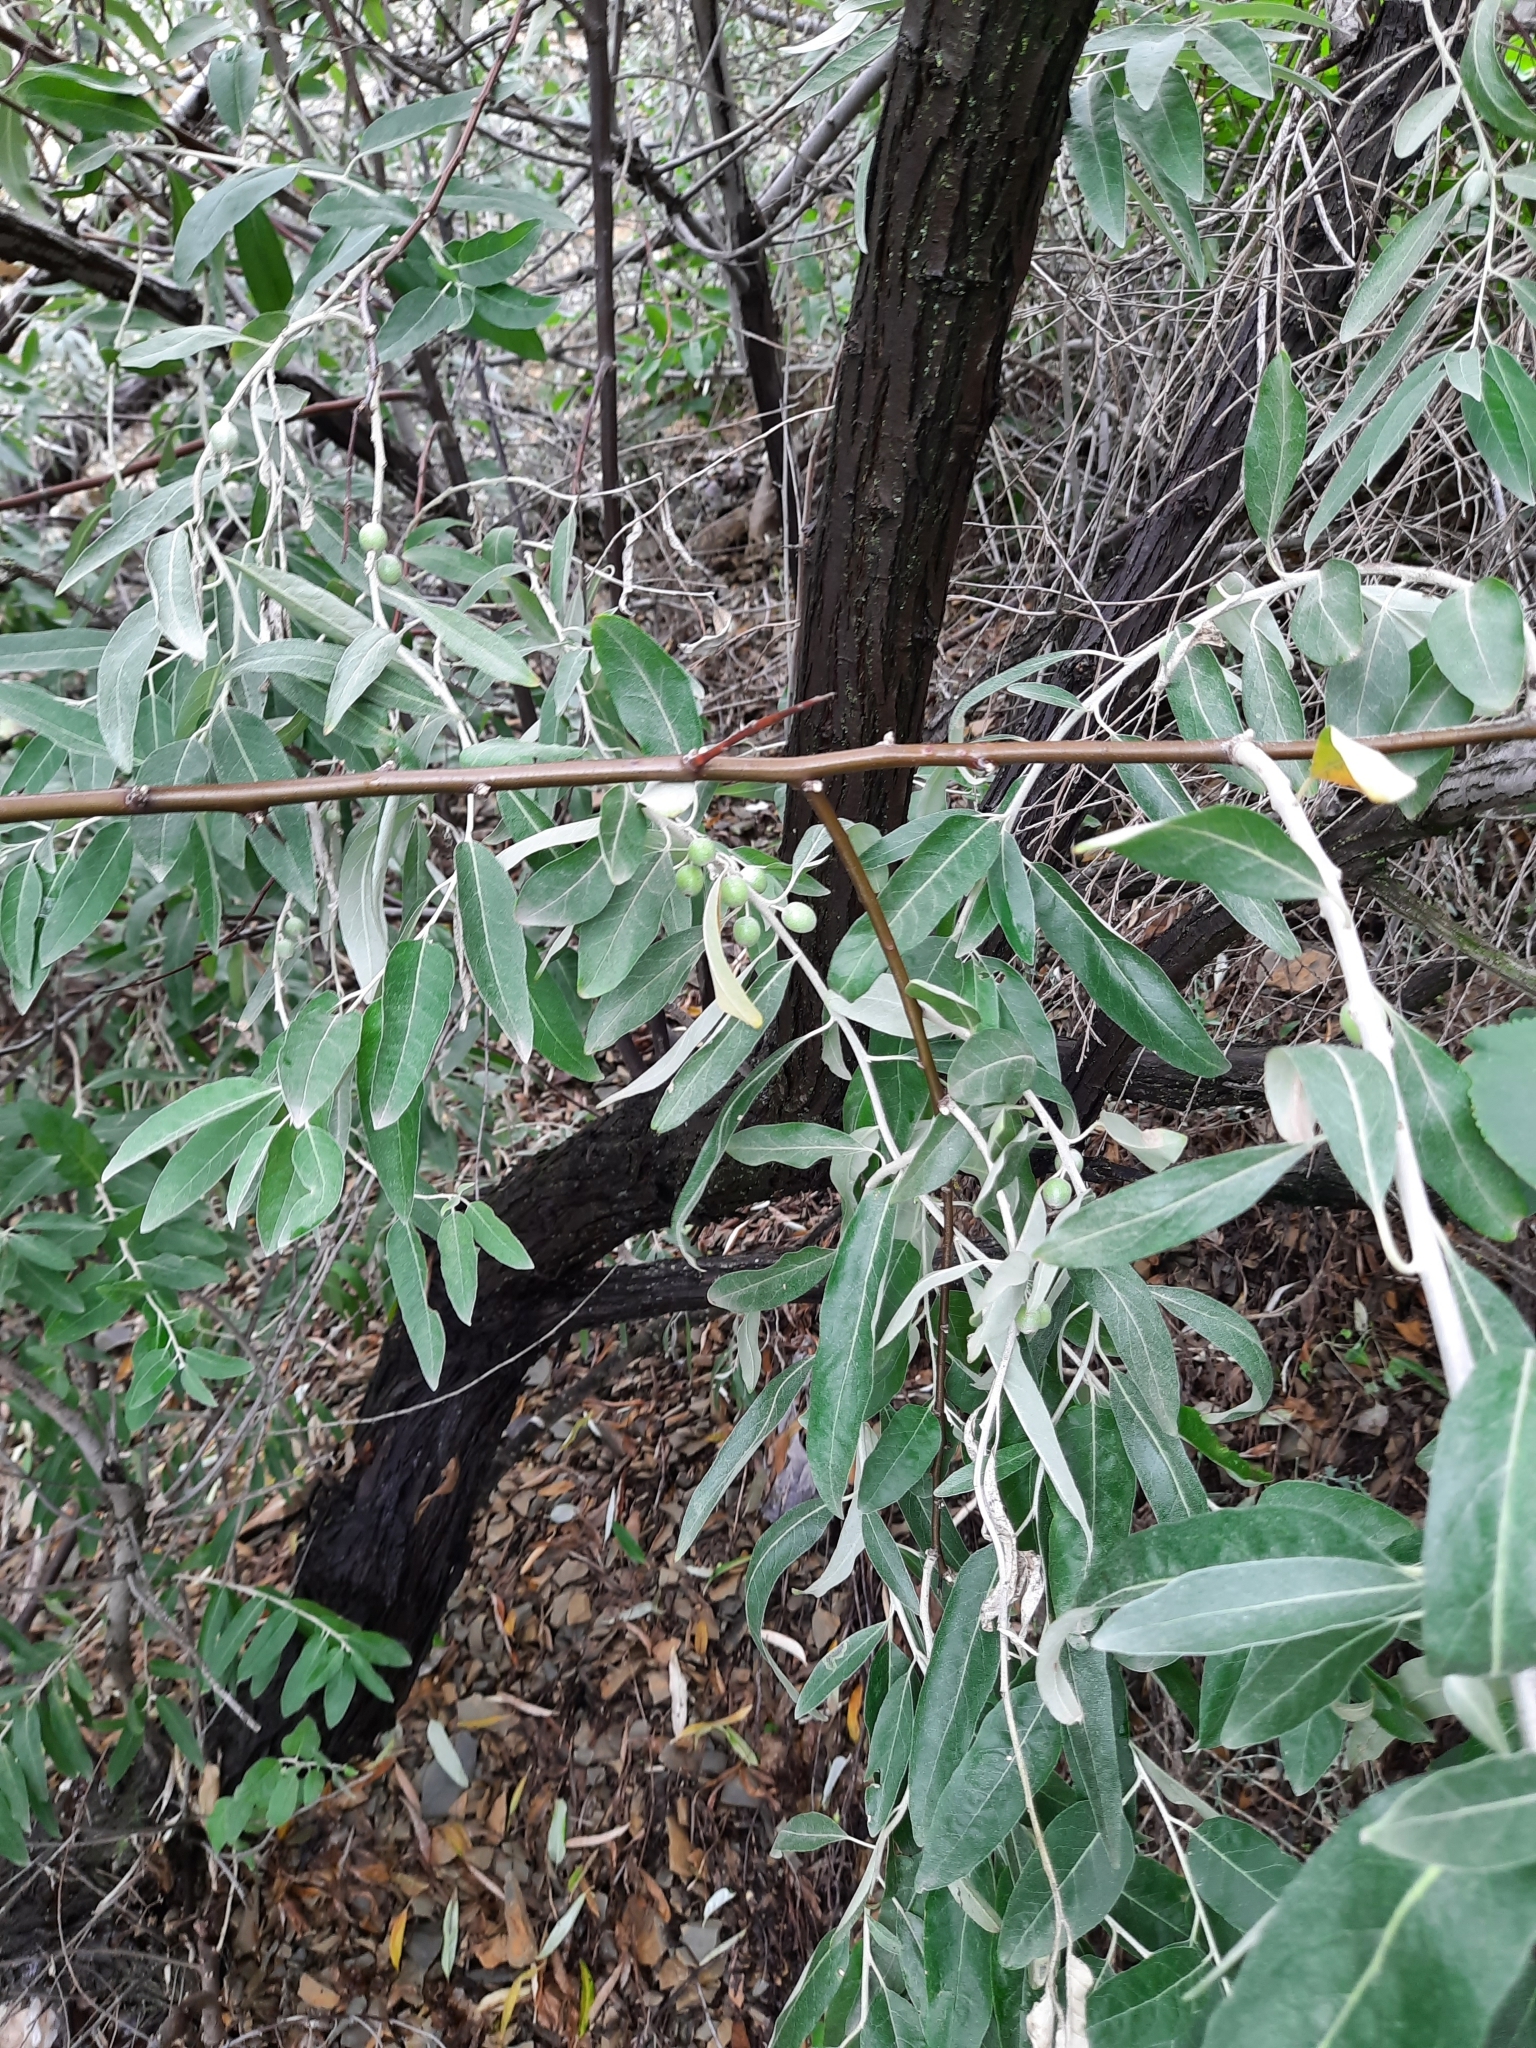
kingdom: Plantae
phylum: Tracheophyta
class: Magnoliopsida
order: Rosales
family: Elaeagnaceae
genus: Elaeagnus
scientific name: Elaeagnus angustifolia
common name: Russian olive
